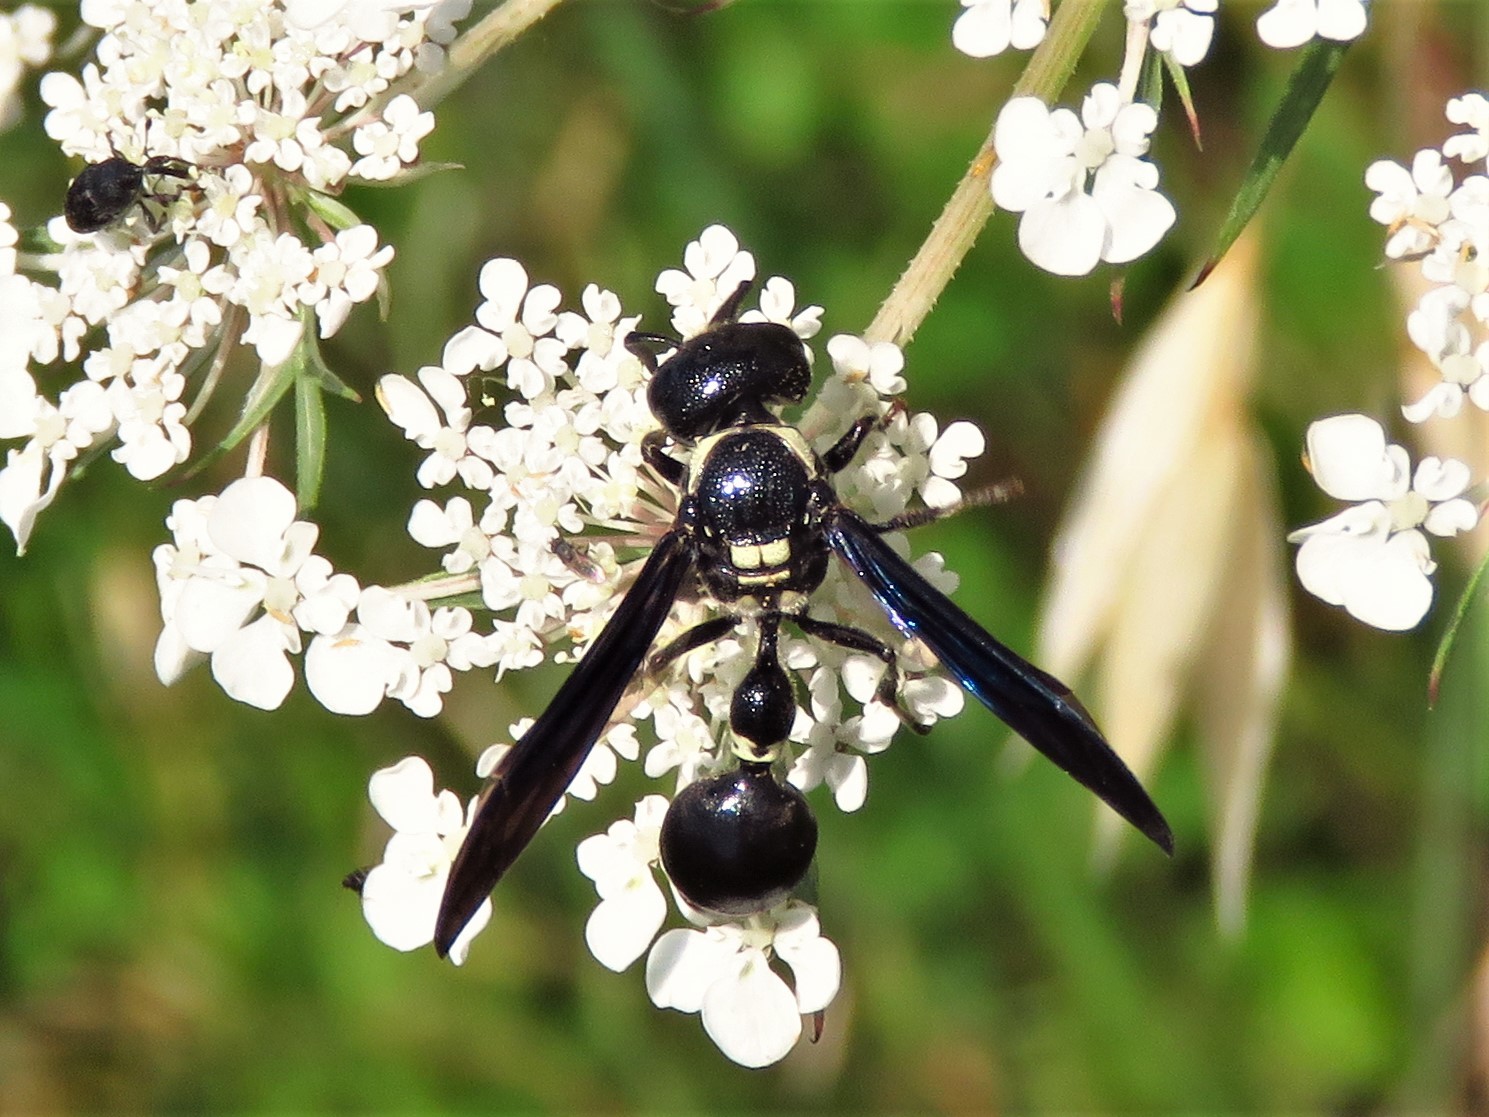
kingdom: Animalia
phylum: Arthropoda
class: Insecta
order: Hymenoptera
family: Eumenidae
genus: Zethus
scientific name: Zethus spinipes
